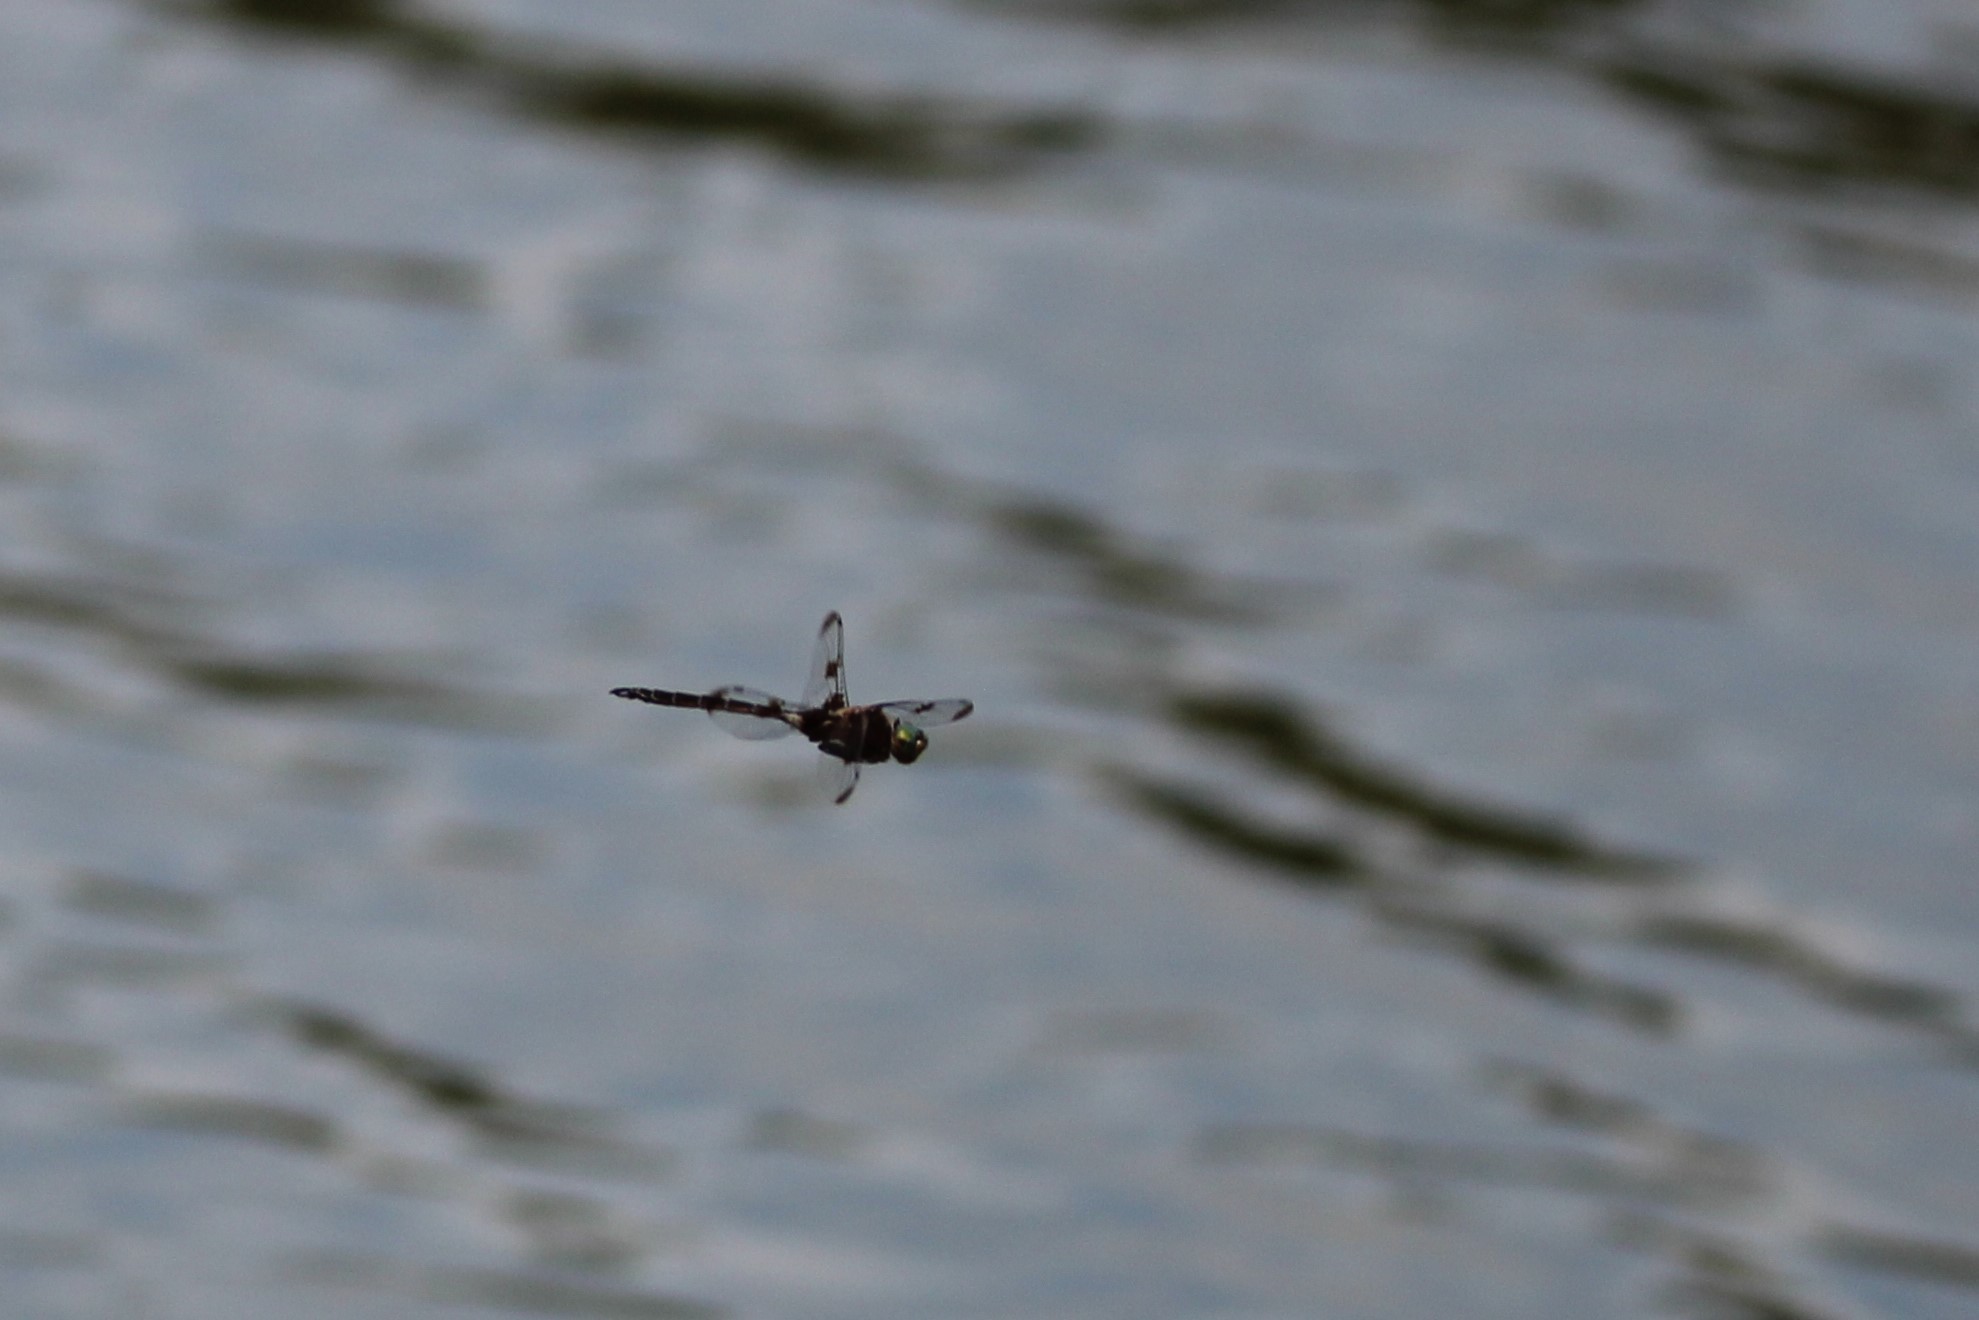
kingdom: Animalia
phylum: Arthropoda
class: Insecta
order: Odonata
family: Corduliidae
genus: Epitheca
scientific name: Epitheca princeps
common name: Prince baskettail
